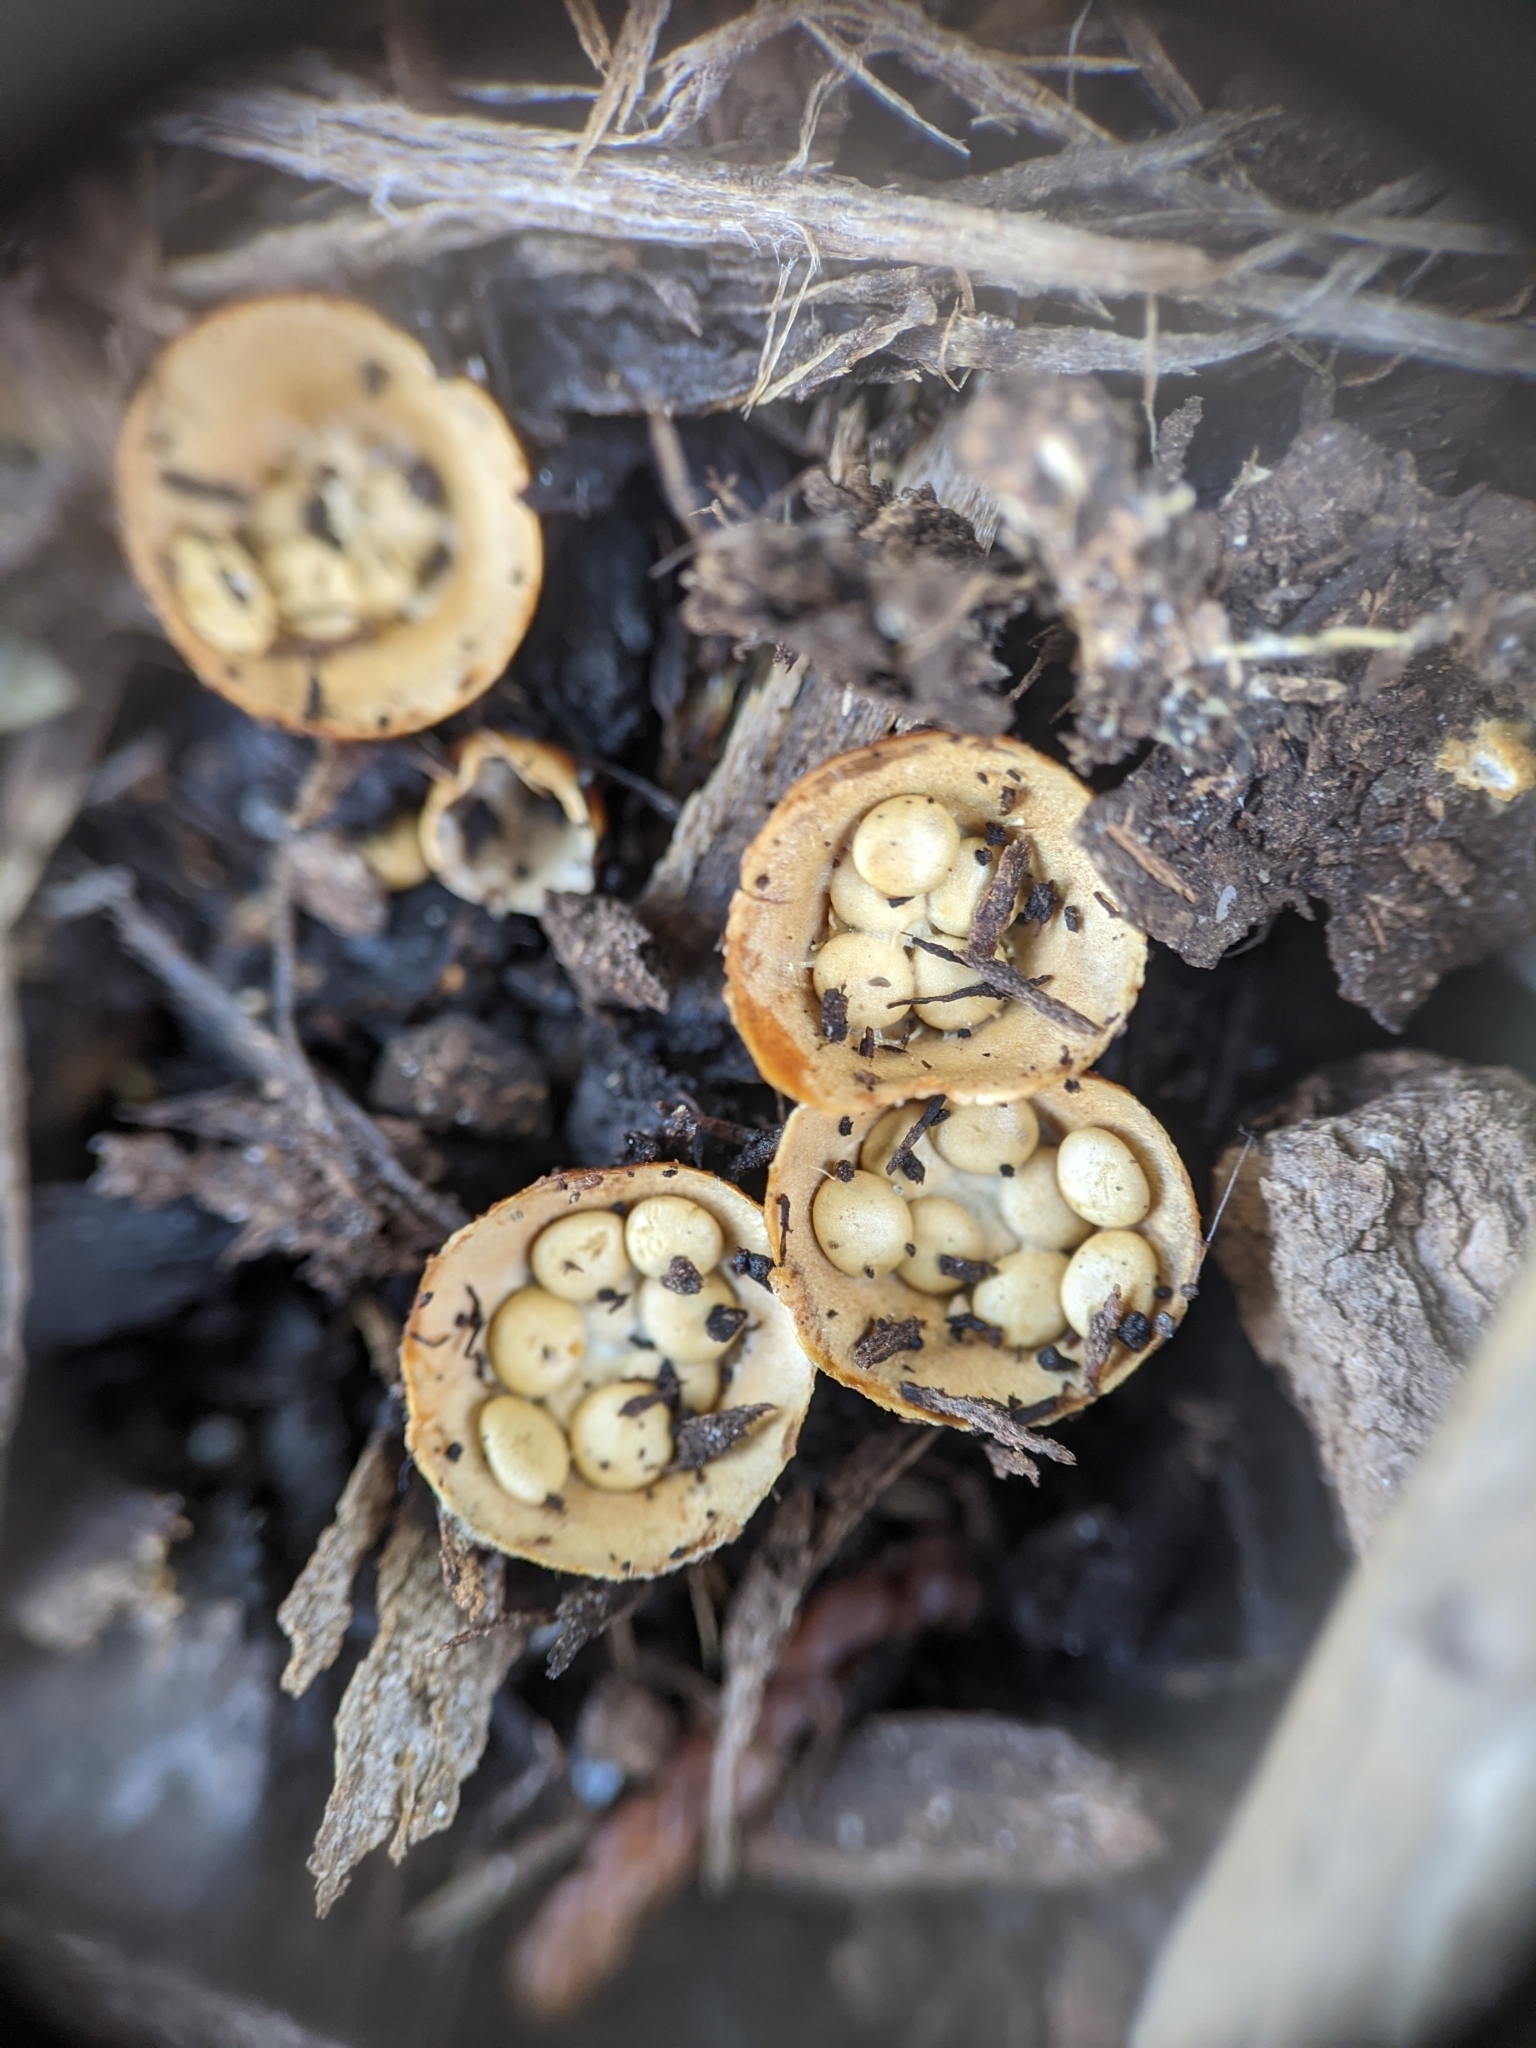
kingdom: Fungi
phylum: Basidiomycota
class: Agaricomycetes
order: Agaricales
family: Nidulariaceae
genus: Crucibulum
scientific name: Crucibulum laeve
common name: Common bird's nest
